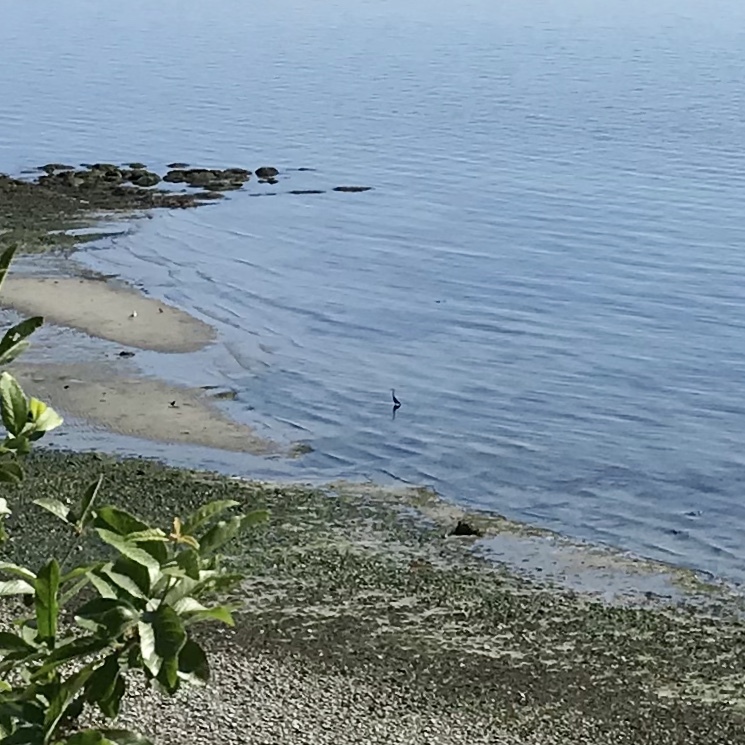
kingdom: Animalia
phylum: Chordata
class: Aves
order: Pelecaniformes
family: Ardeidae
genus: Ardea
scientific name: Ardea herodias
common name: Great blue heron
